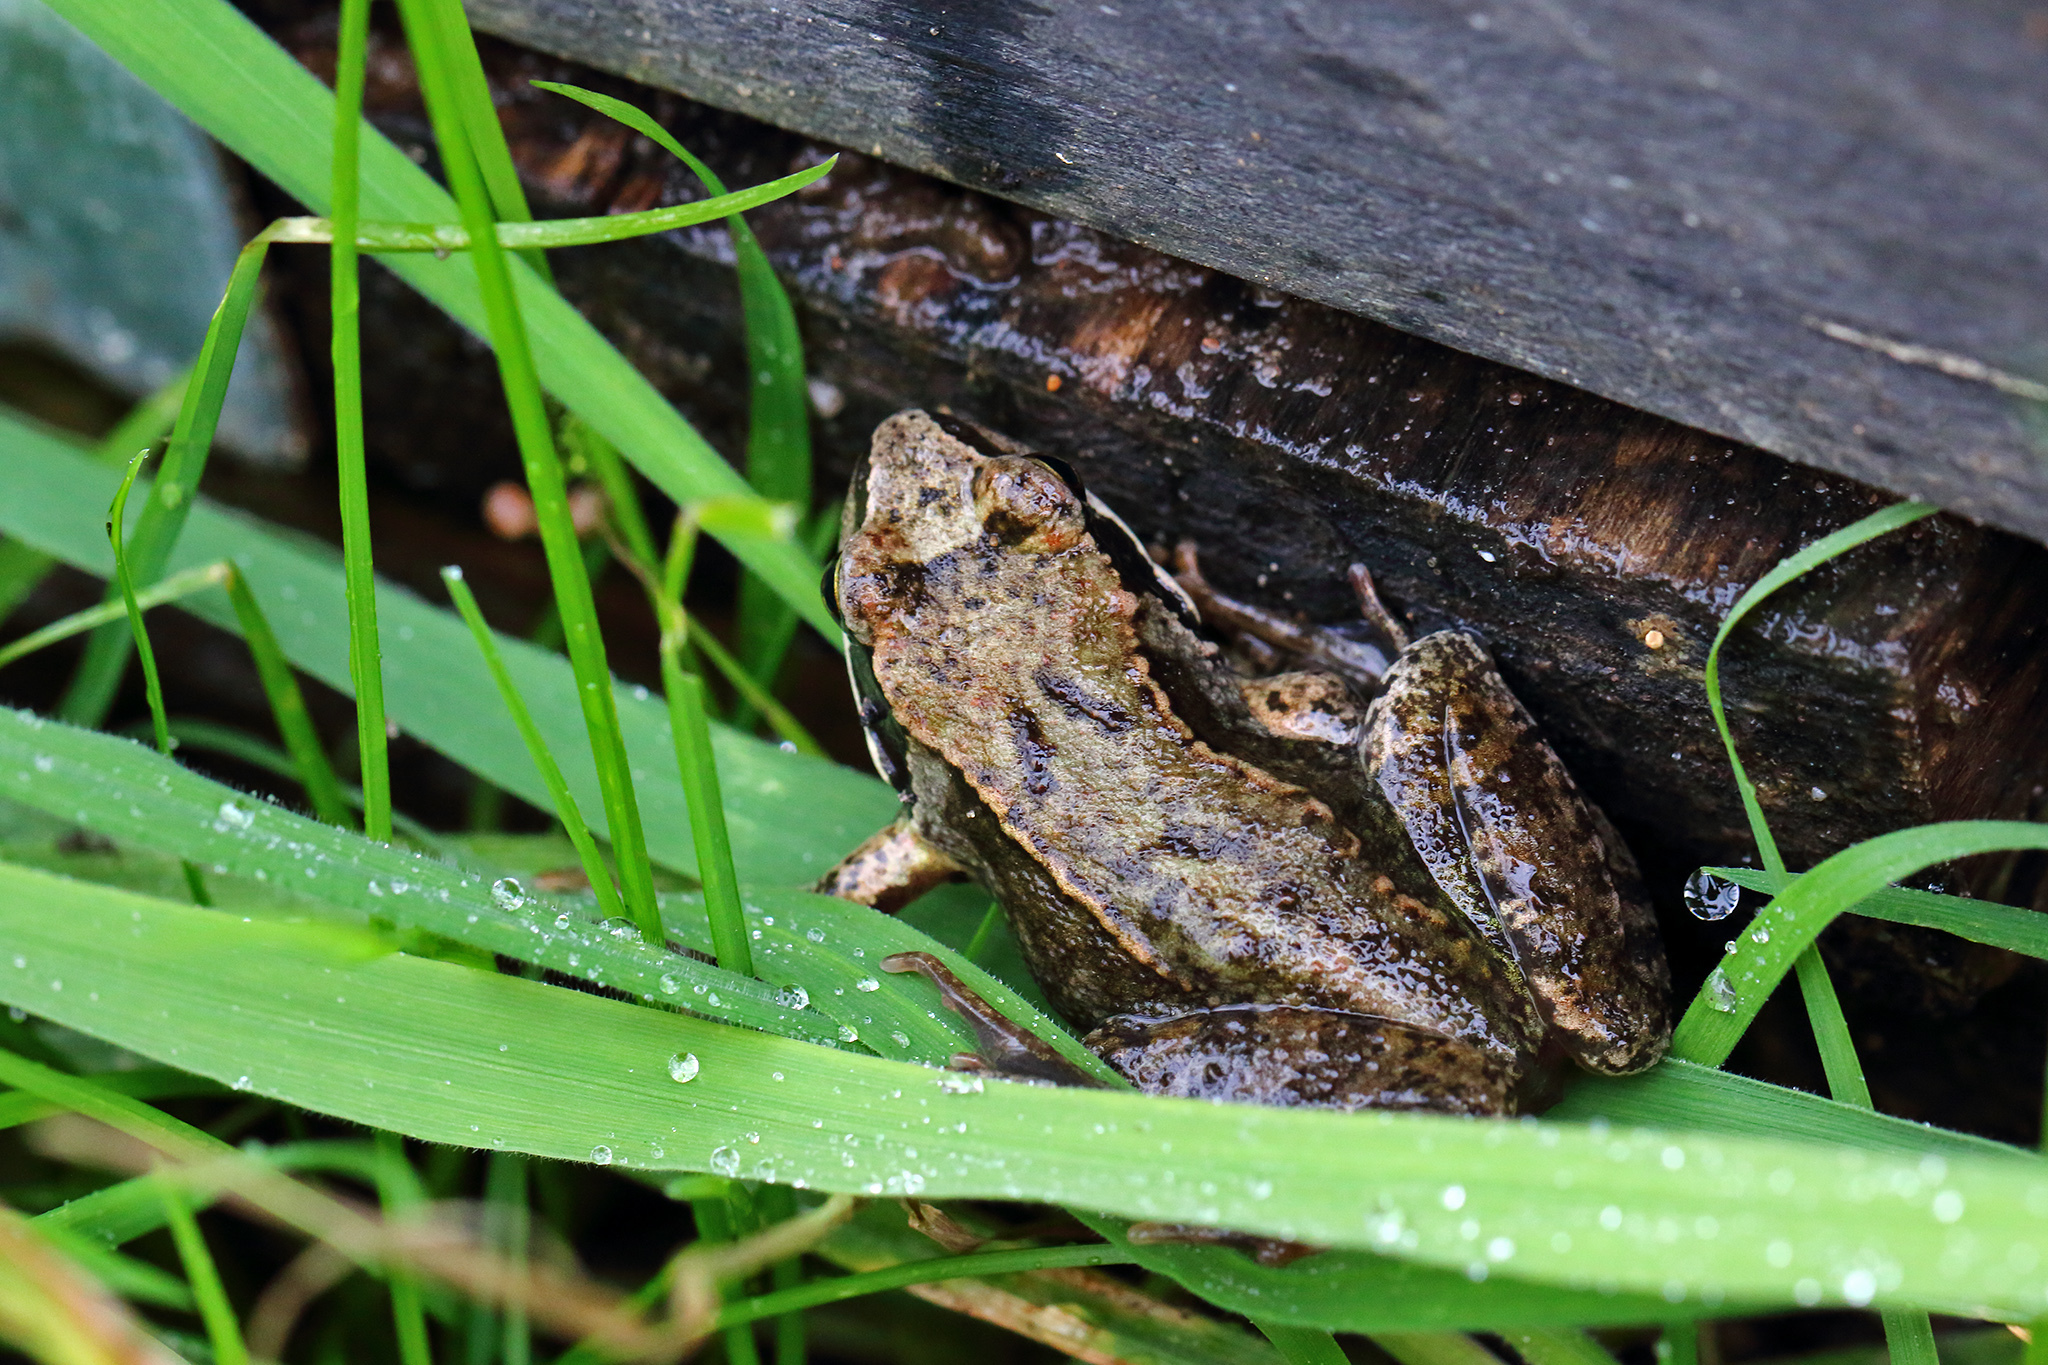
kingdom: Animalia
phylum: Chordata
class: Amphibia
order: Anura
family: Ranidae
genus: Rana
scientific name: Rana temporaria
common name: Common frog
